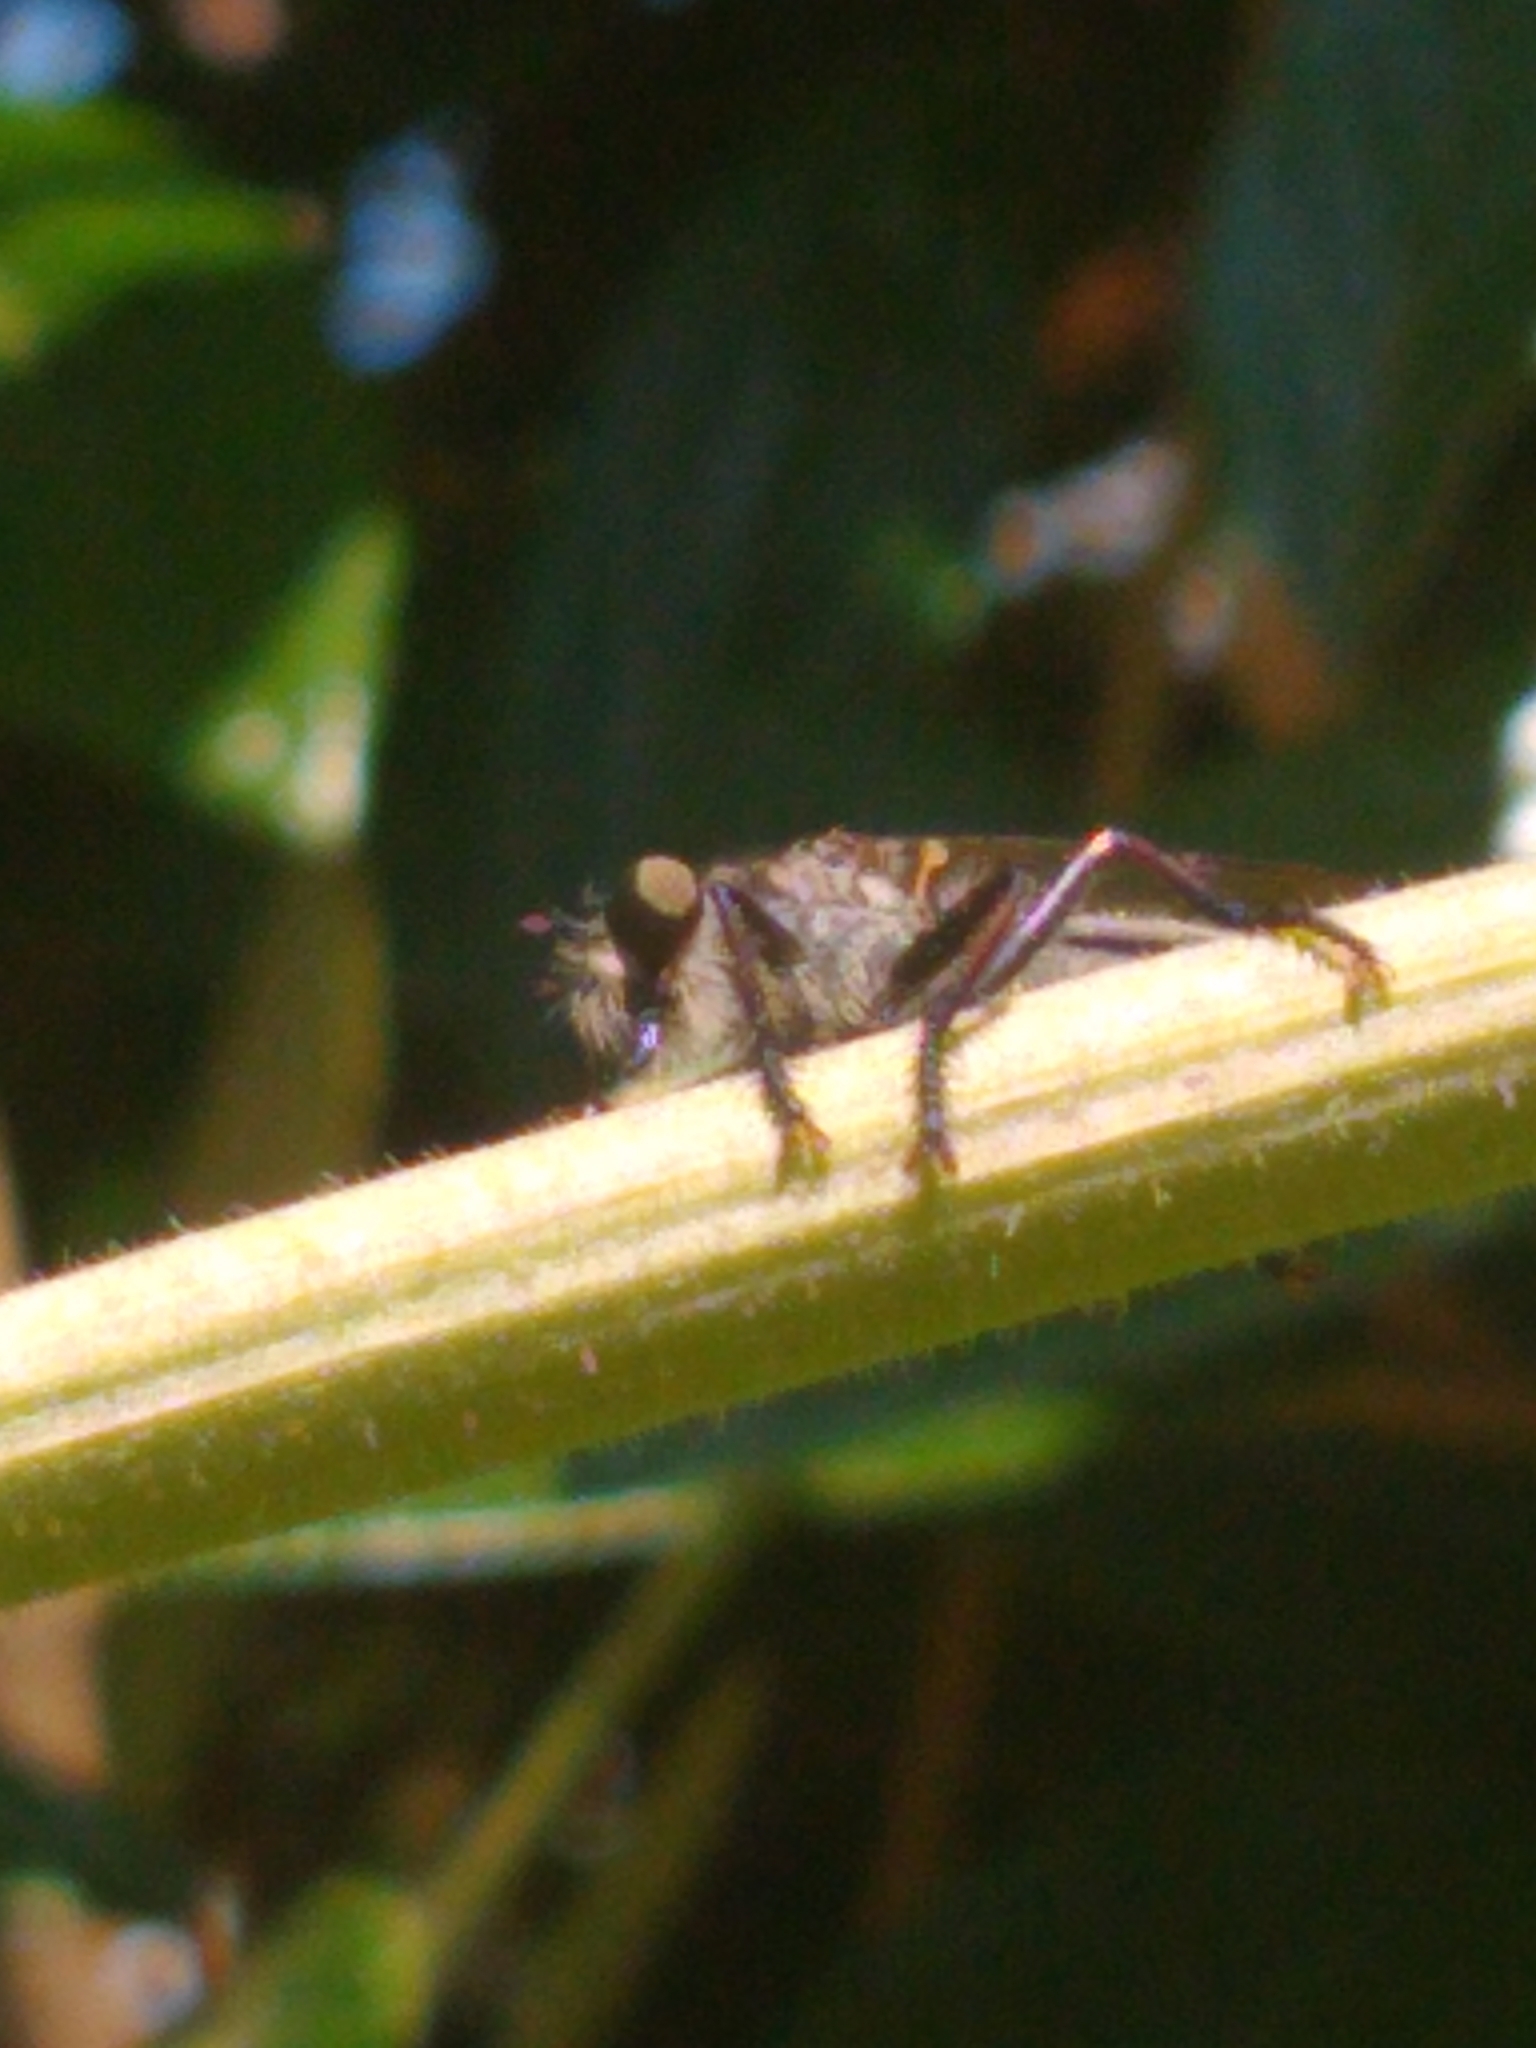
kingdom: Animalia
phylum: Arthropoda
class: Insecta
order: Diptera
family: Asilidae
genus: Efferia
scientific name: Efferia aestuans
